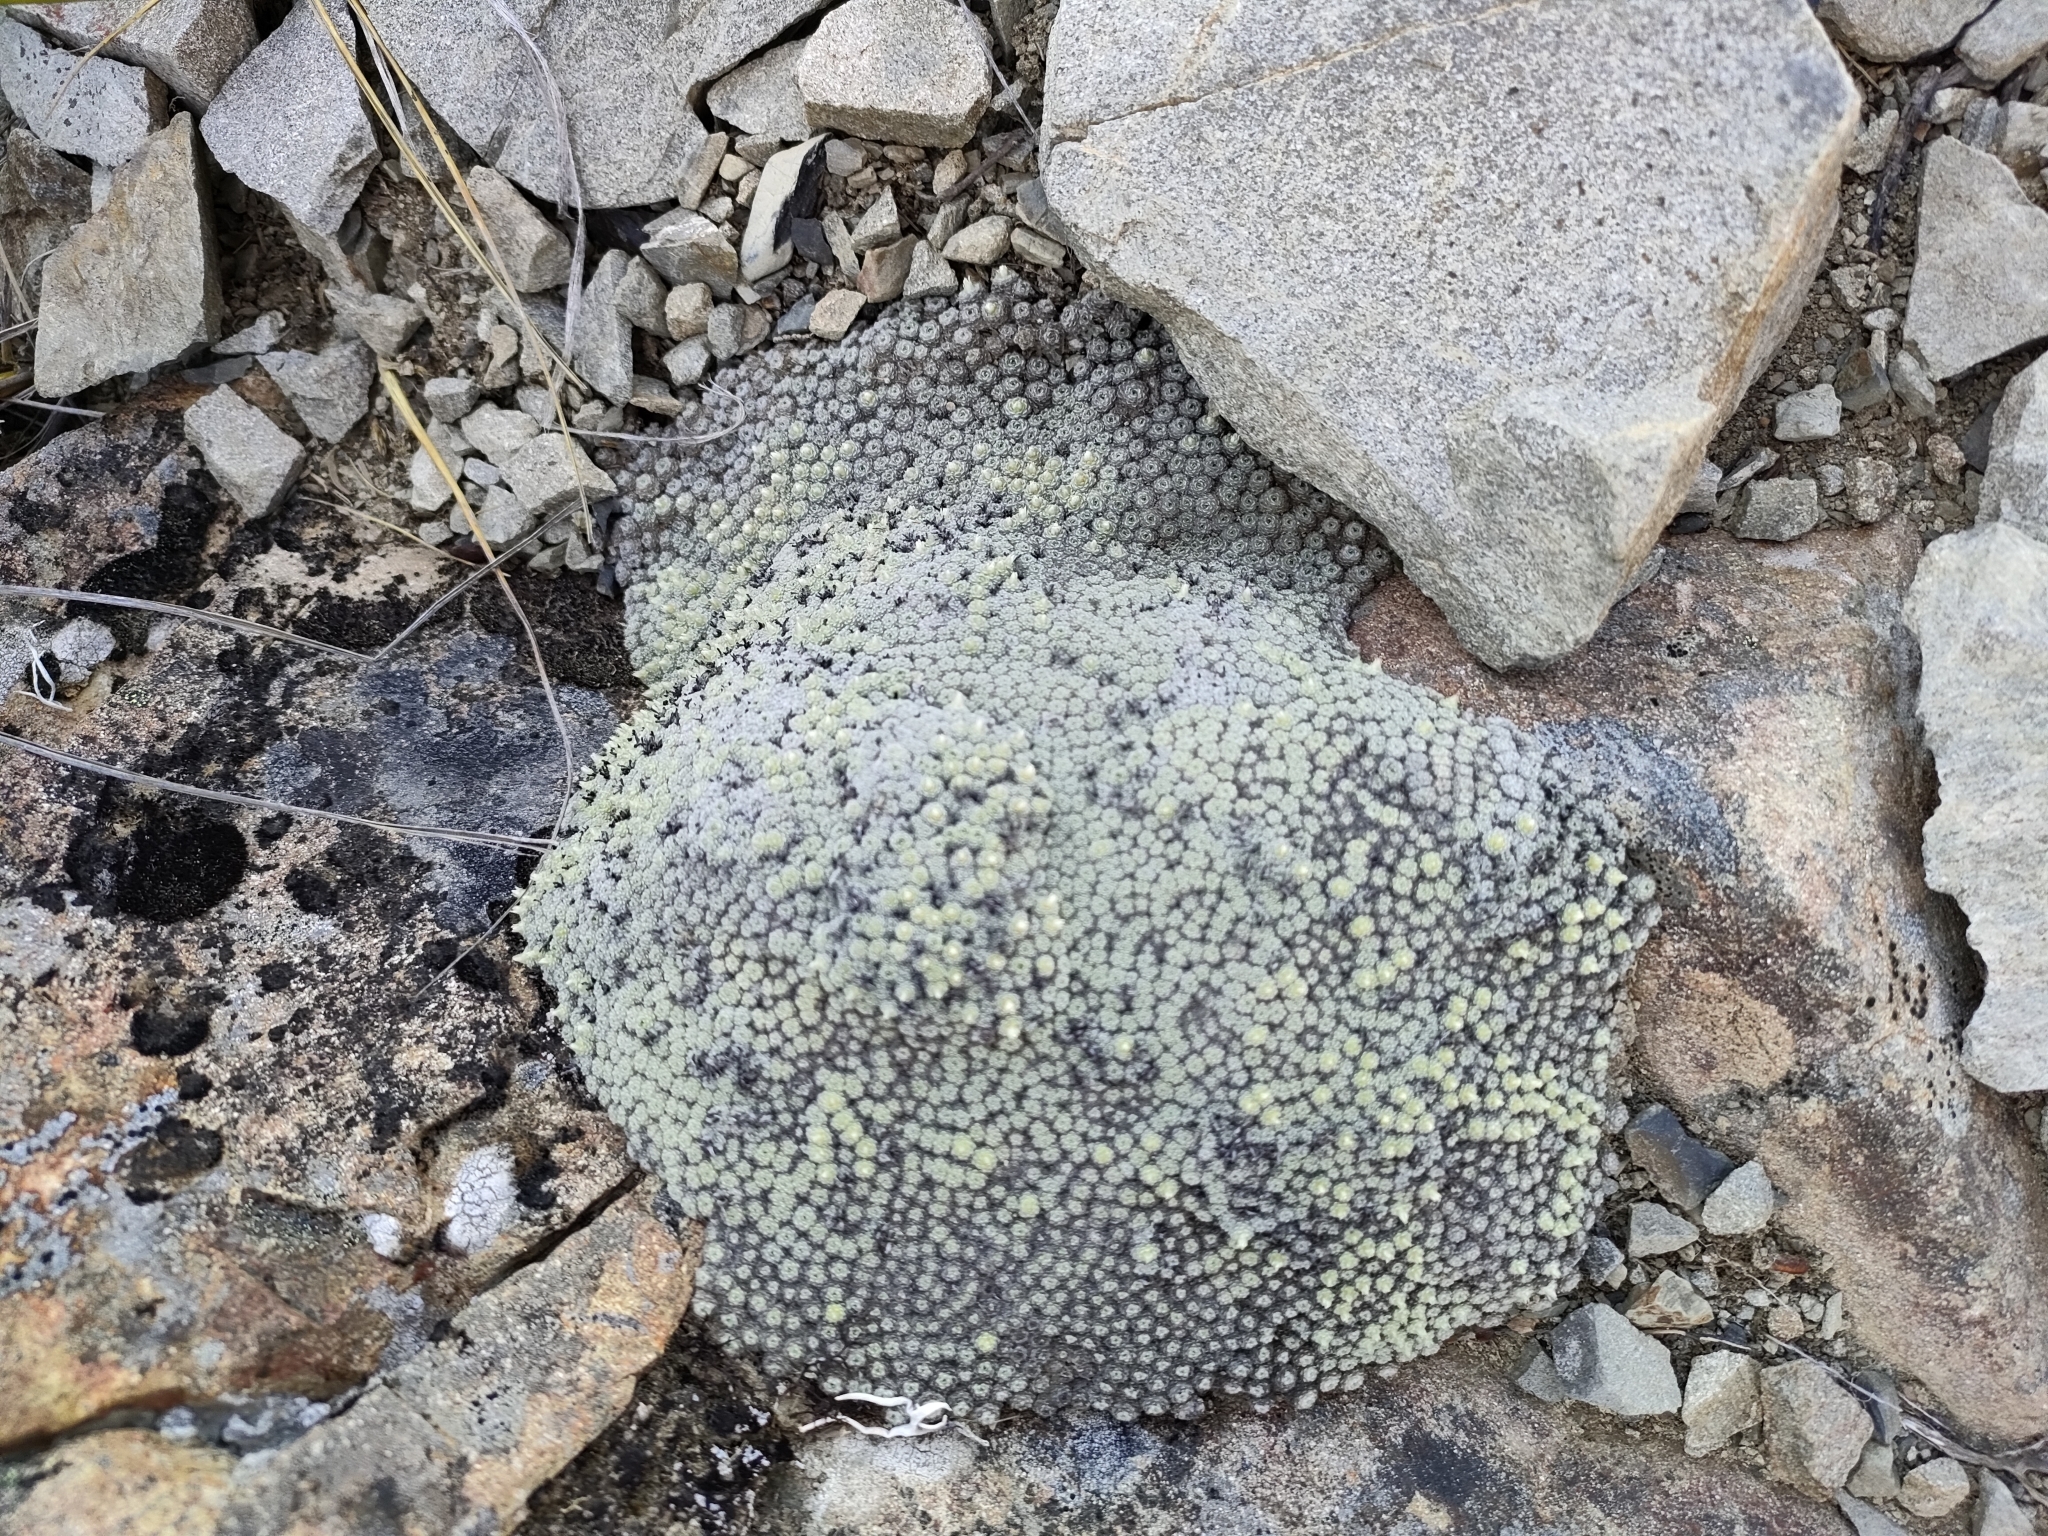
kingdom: Plantae
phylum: Tracheophyta
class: Magnoliopsida
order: Asterales
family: Asteraceae
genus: Raoulia
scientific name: Raoulia mammillaris
